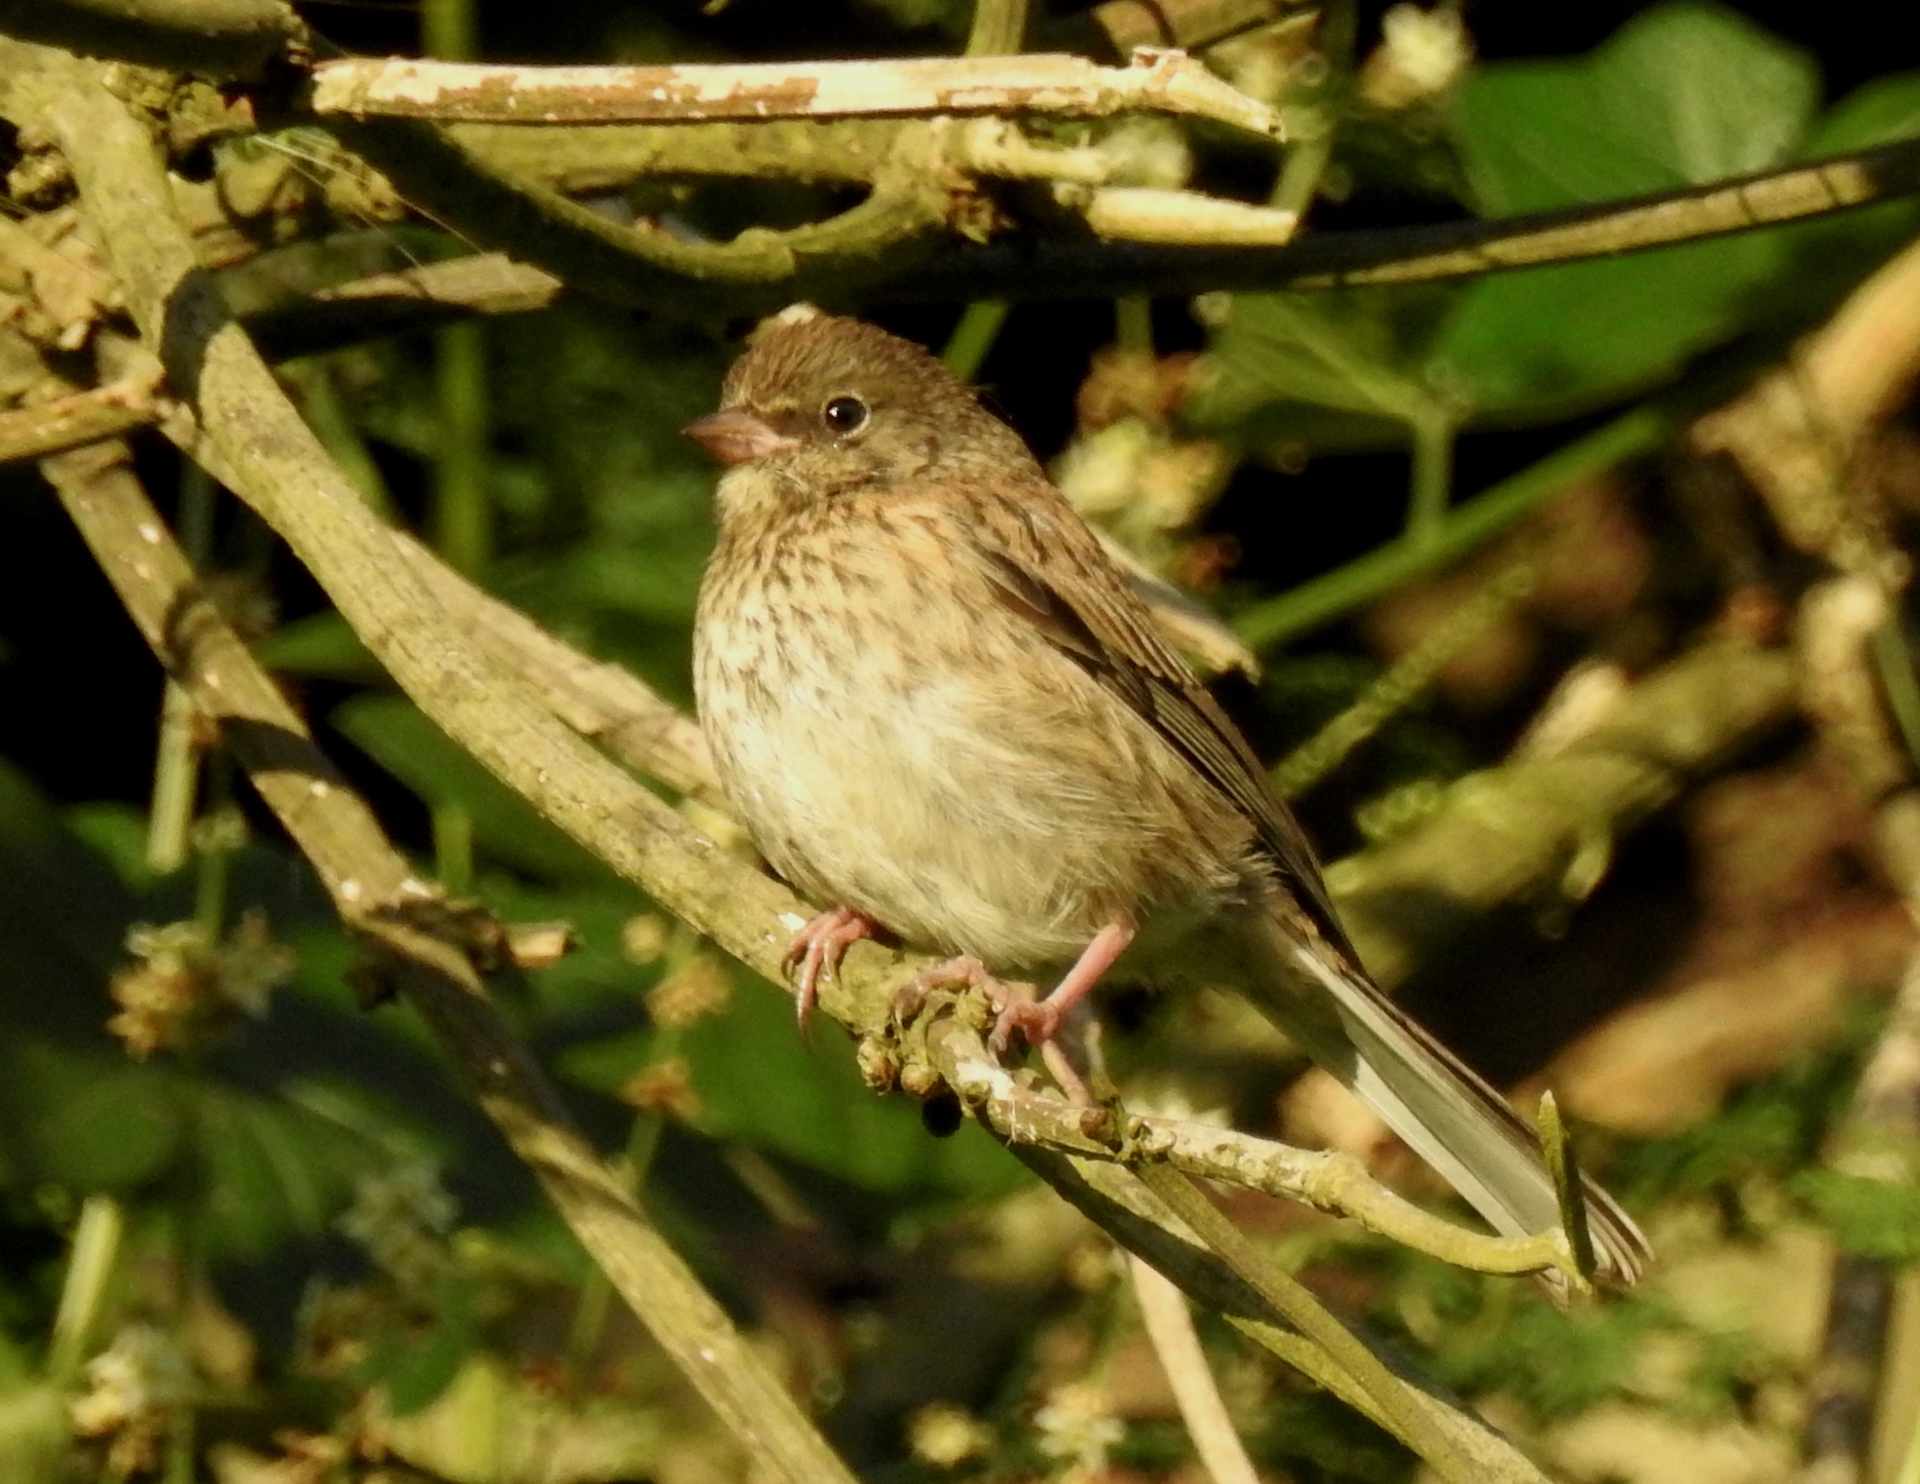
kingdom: Animalia
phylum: Chordata
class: Aves
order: Passeriformes
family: Passerellidae
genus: Junco
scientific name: Junco hyemalis
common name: Dark-eyed junco
